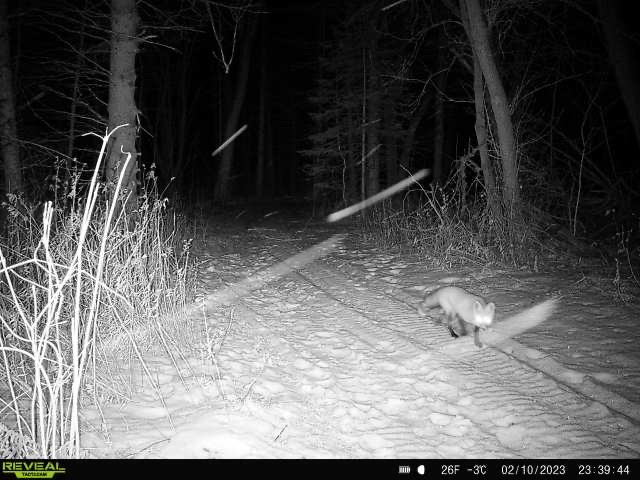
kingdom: Animalia
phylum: Chordata
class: Mammalia
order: Carnivora
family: Canidae
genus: Vulpes
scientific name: Vulpes vulpes
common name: Red fox
